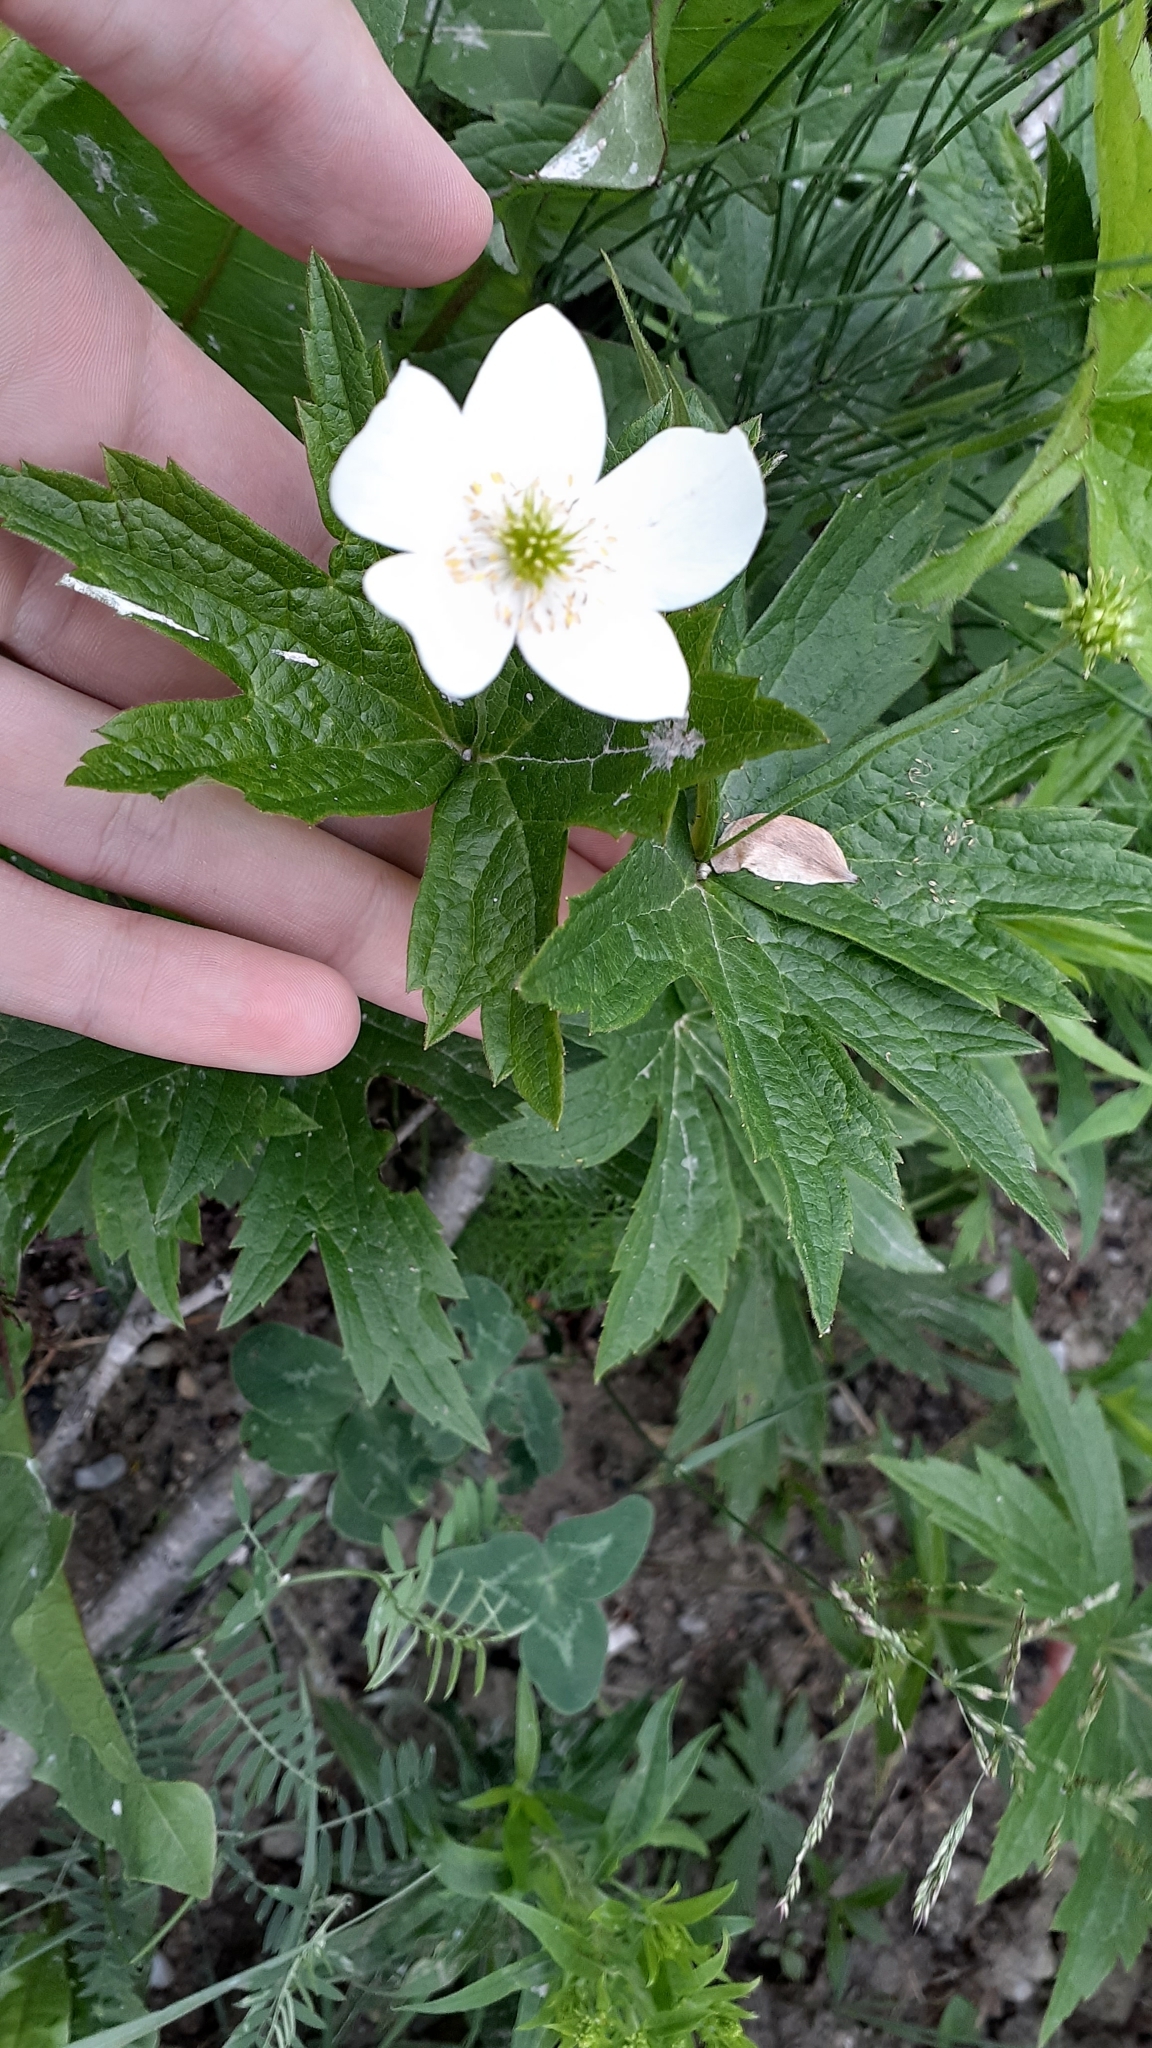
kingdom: Plantae
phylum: Tracheophyta
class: Magnoliopsida
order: Ranunculales
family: Ranunculaceae
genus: Anemonastrum
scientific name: Anemonastrum canadense
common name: Canada anemone
